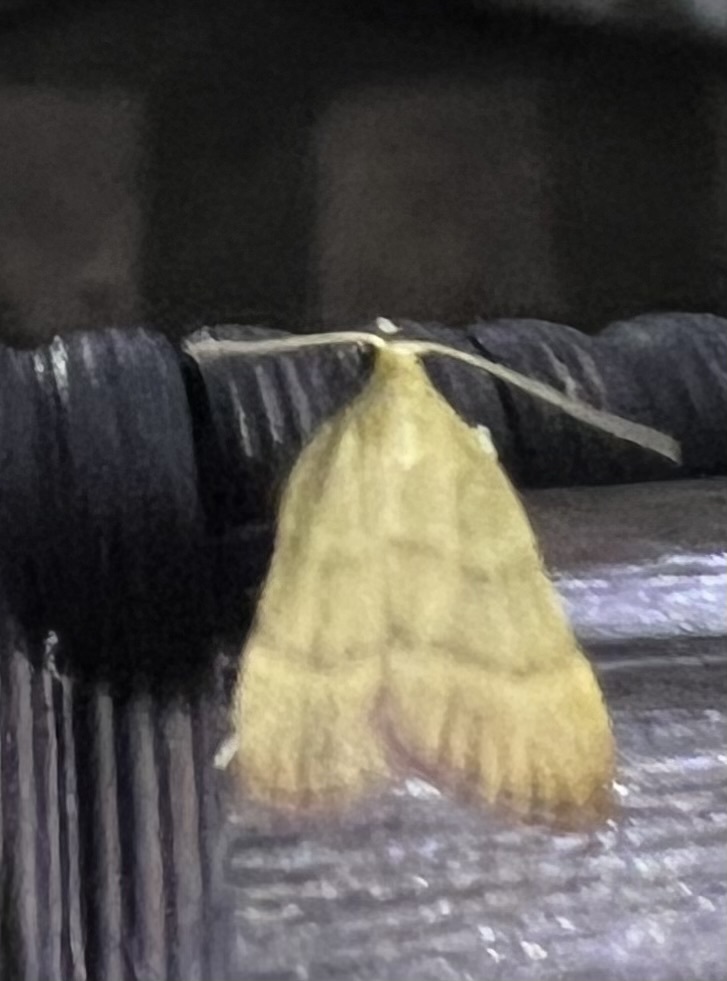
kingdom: Animalia
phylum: Arthropoda
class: Insecta
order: Lepidoptera
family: Pyralidae
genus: Condylolomia
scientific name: Condylolomia participialis
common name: Drab condylolomia moth
